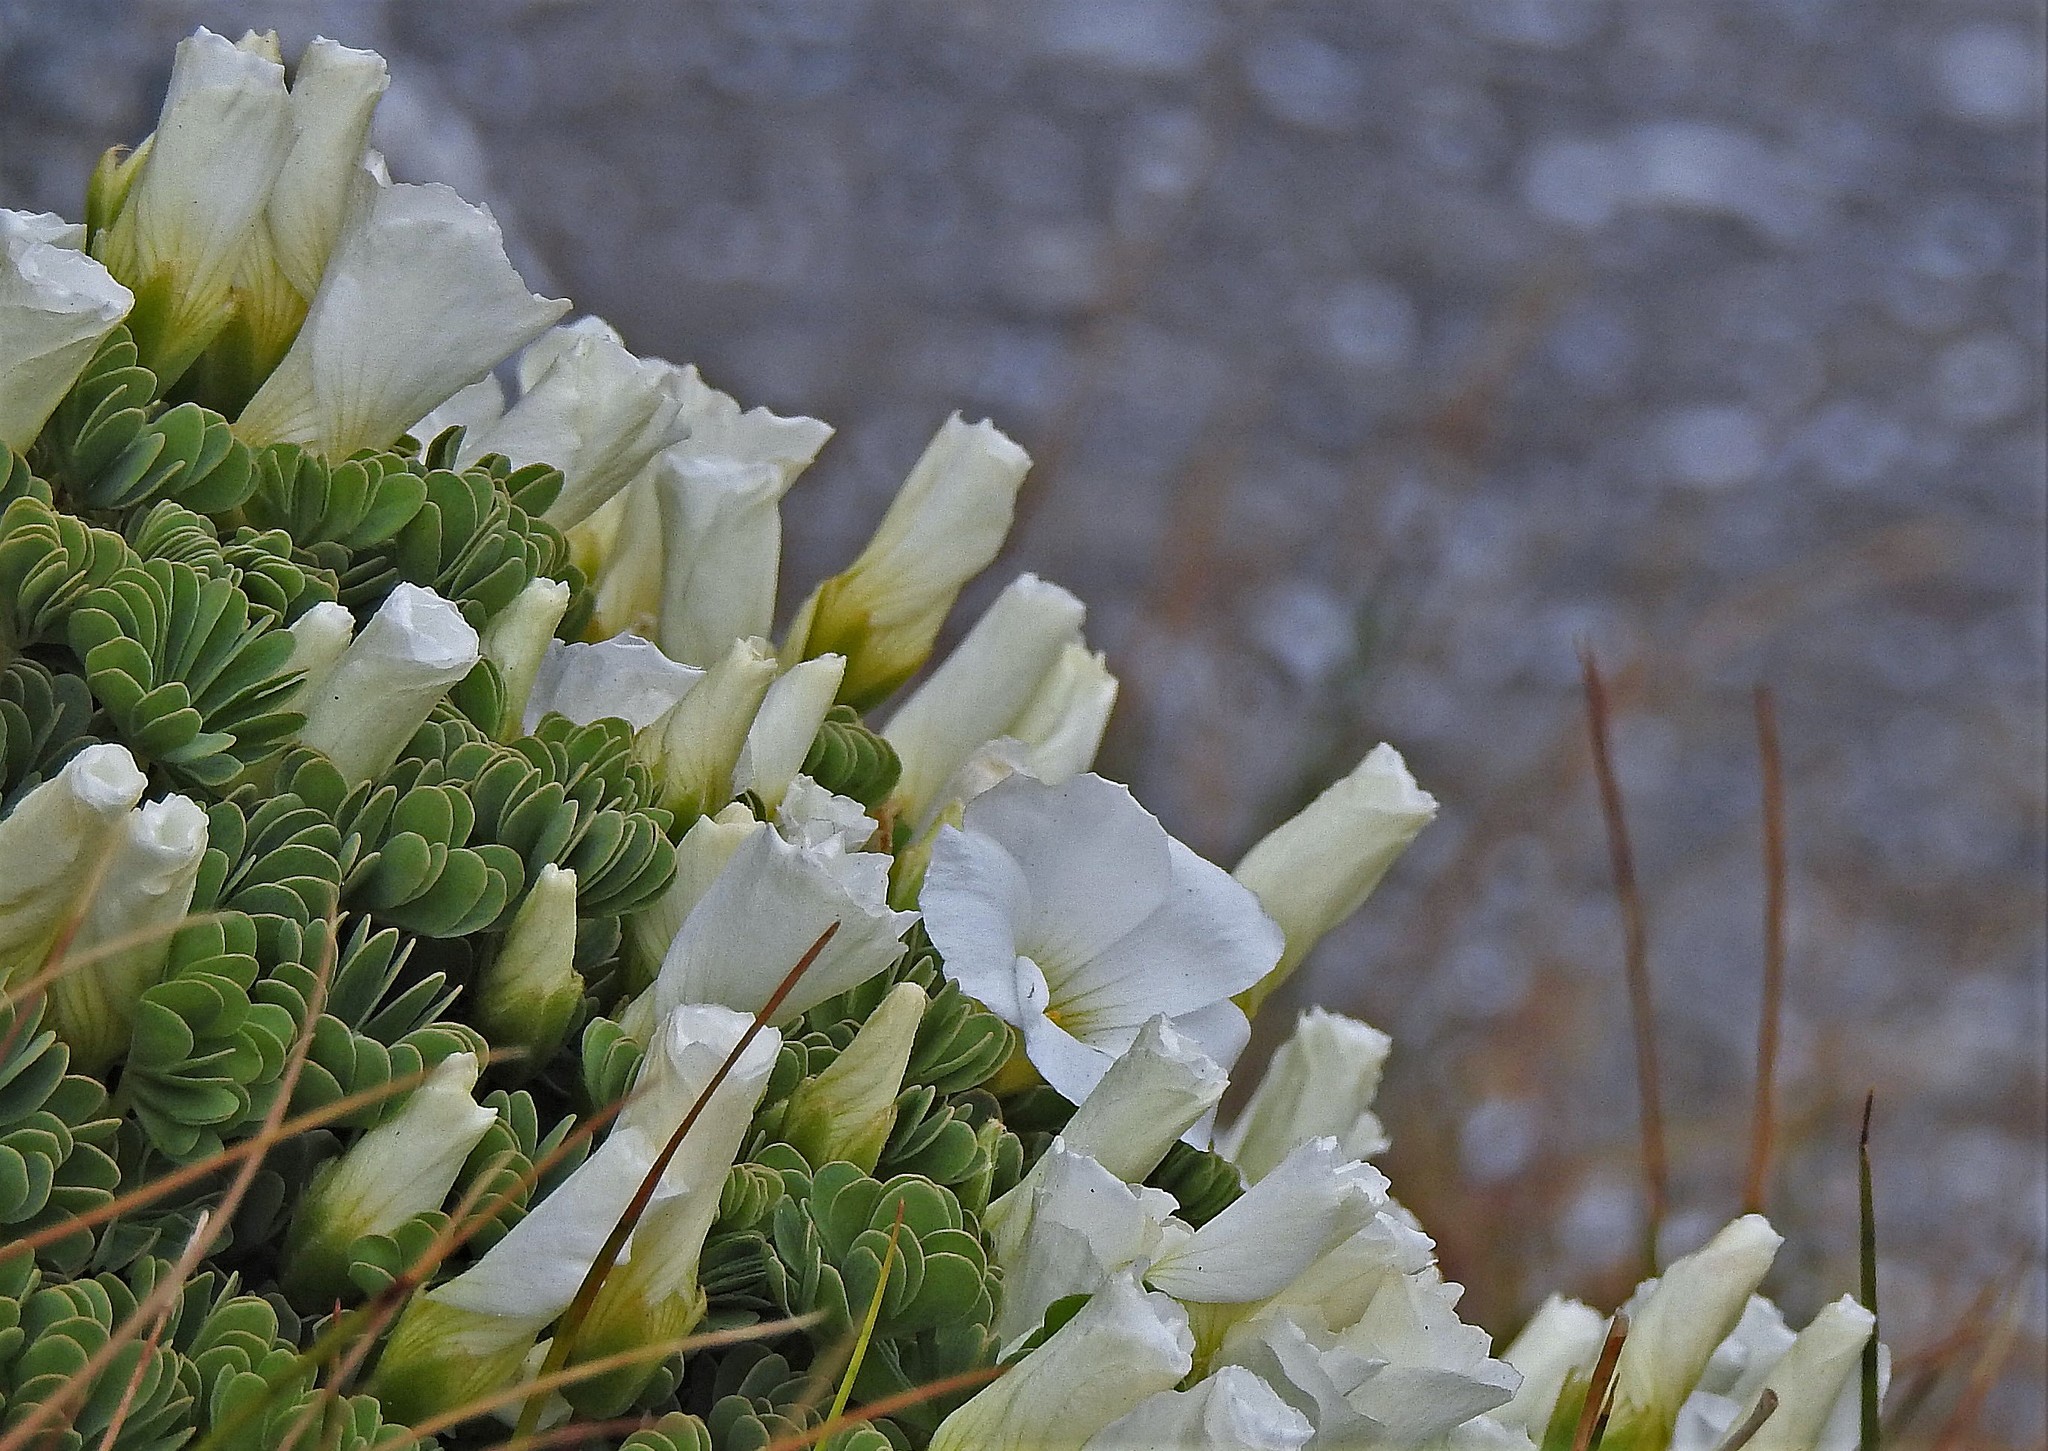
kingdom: Plantae
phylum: Tracheophyta
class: Magnoliopsida
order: Oxalidales
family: Oxalidaceae
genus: Oxalis
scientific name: Oxalis enneaphylla
